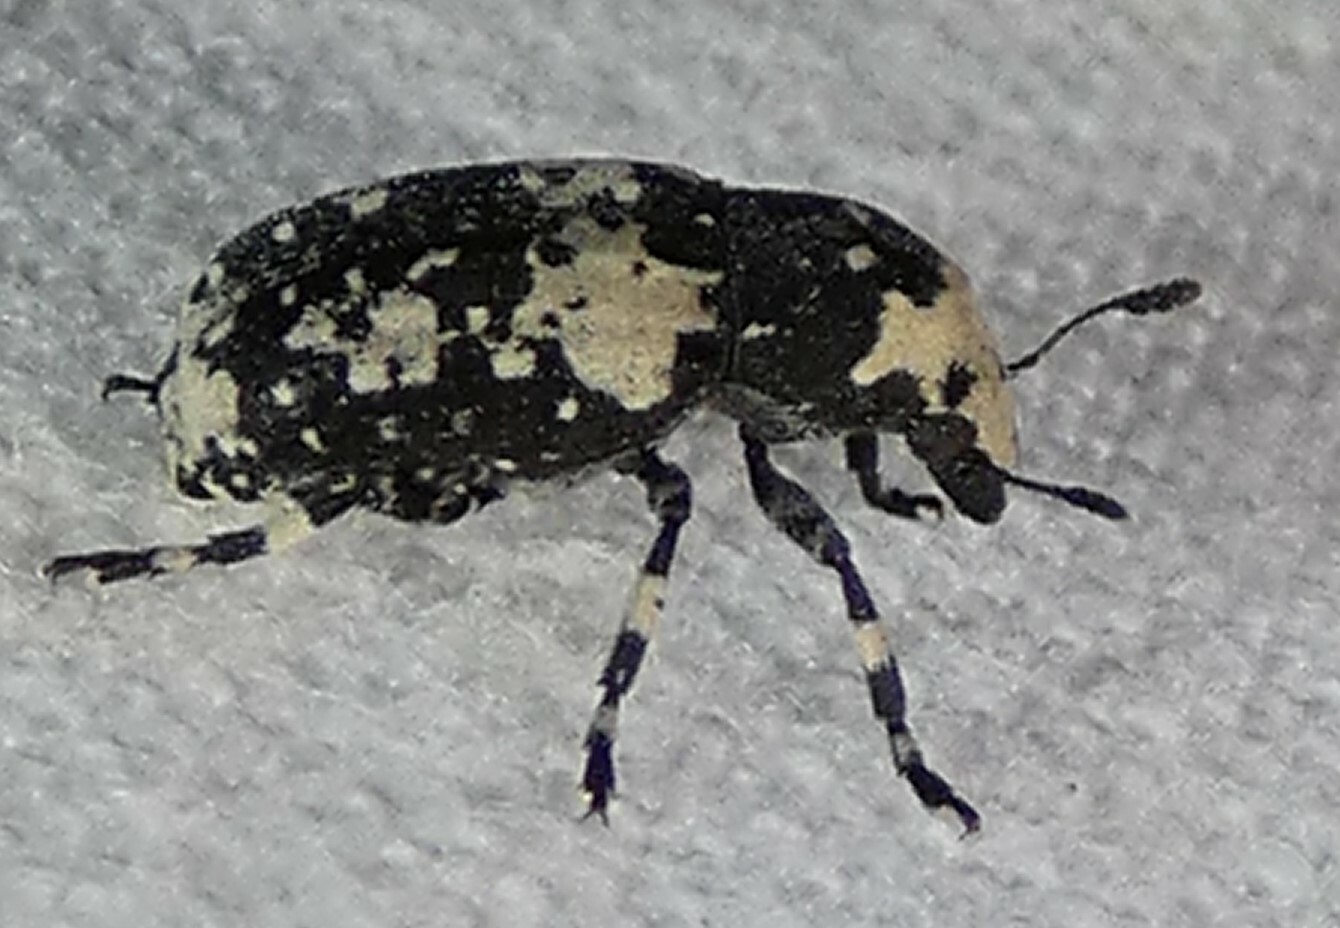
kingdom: Animalia
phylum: Arthropoda
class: Insecta
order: Coleoptera
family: Anthribidae
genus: Euparius
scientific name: Euparius lugubris
